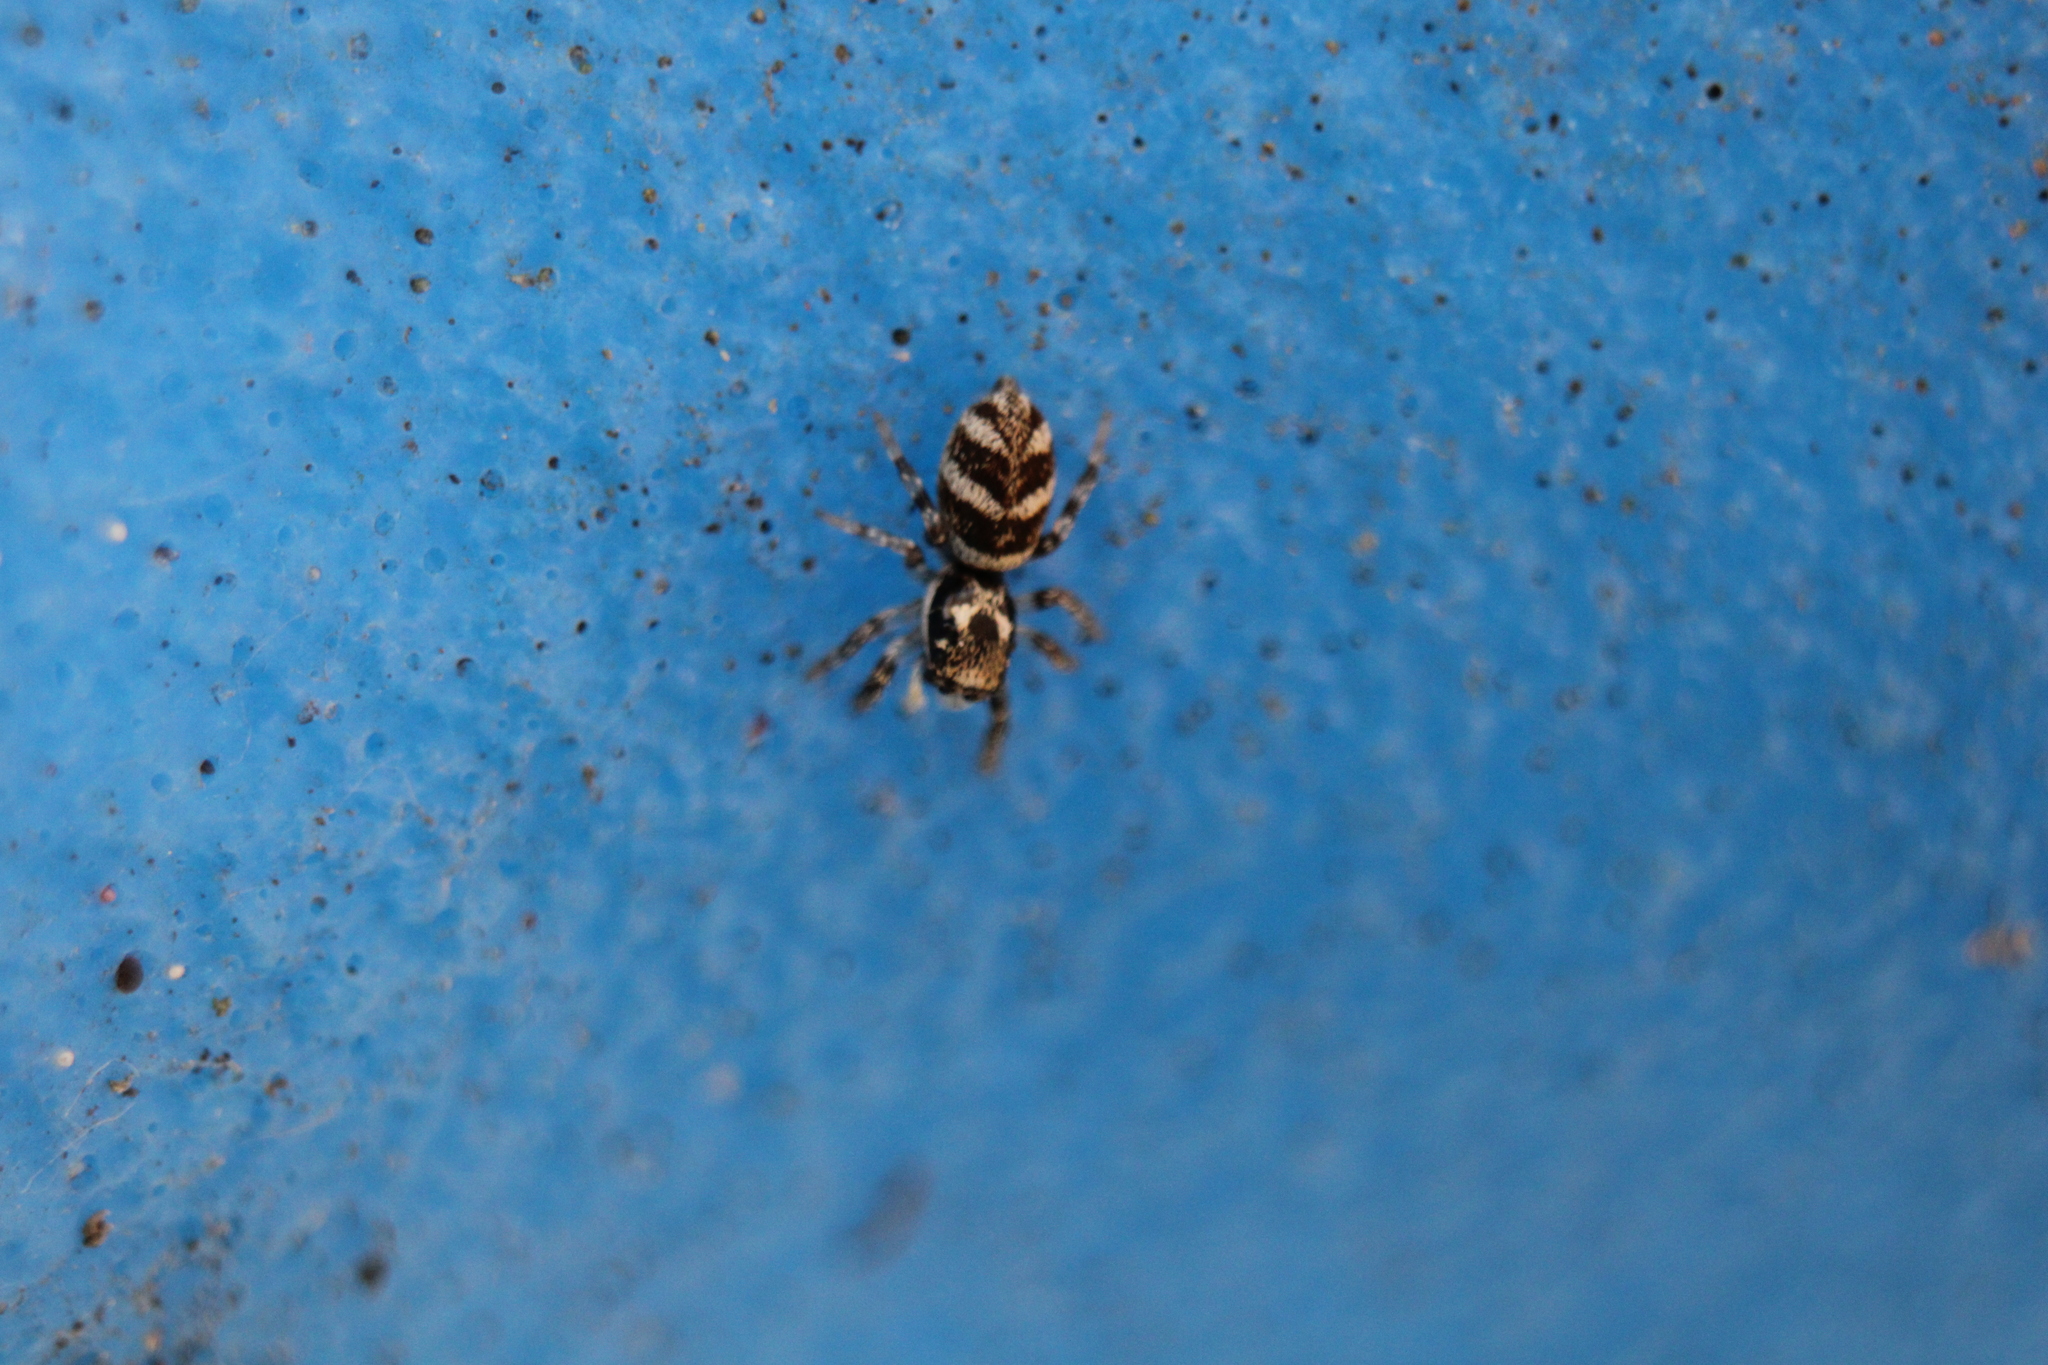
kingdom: Animalia
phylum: Arthropoda
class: Arachnida
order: Araneae
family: Salticidae
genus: Salticus
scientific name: Salticus scenicus
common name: Zebra jumper
